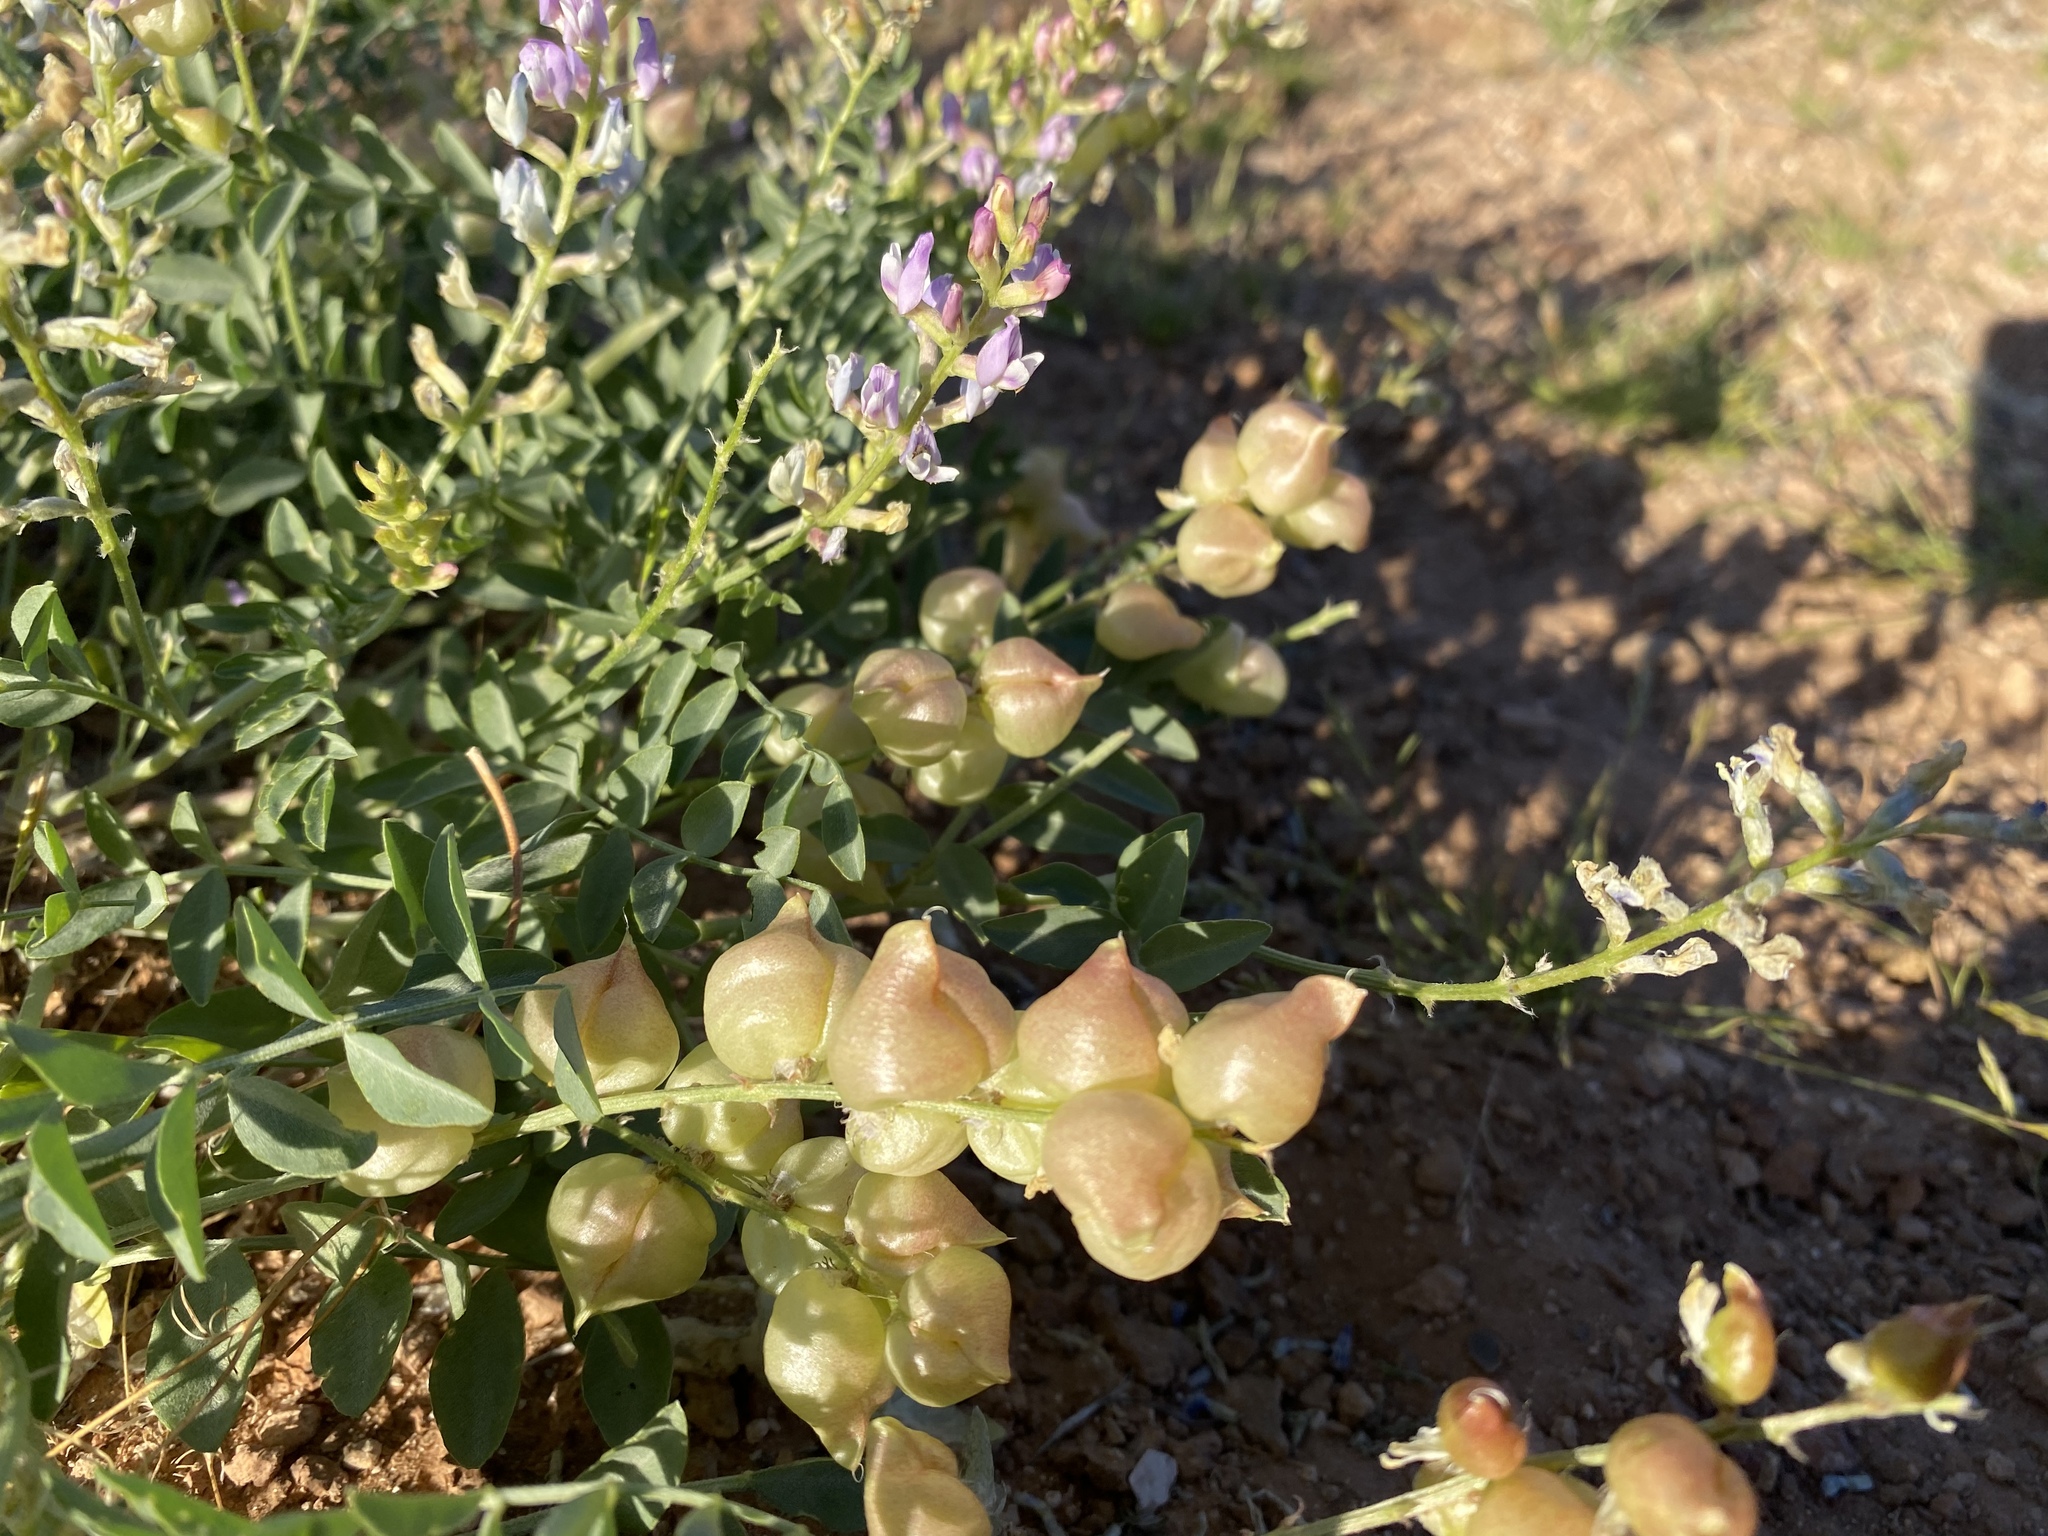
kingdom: Plantae
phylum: Tracheophyta
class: Magnoliopsida
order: Fabales
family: Fabaceae
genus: Astragalus
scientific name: Astragalus lentiginosus
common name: Freckled milkvetch
